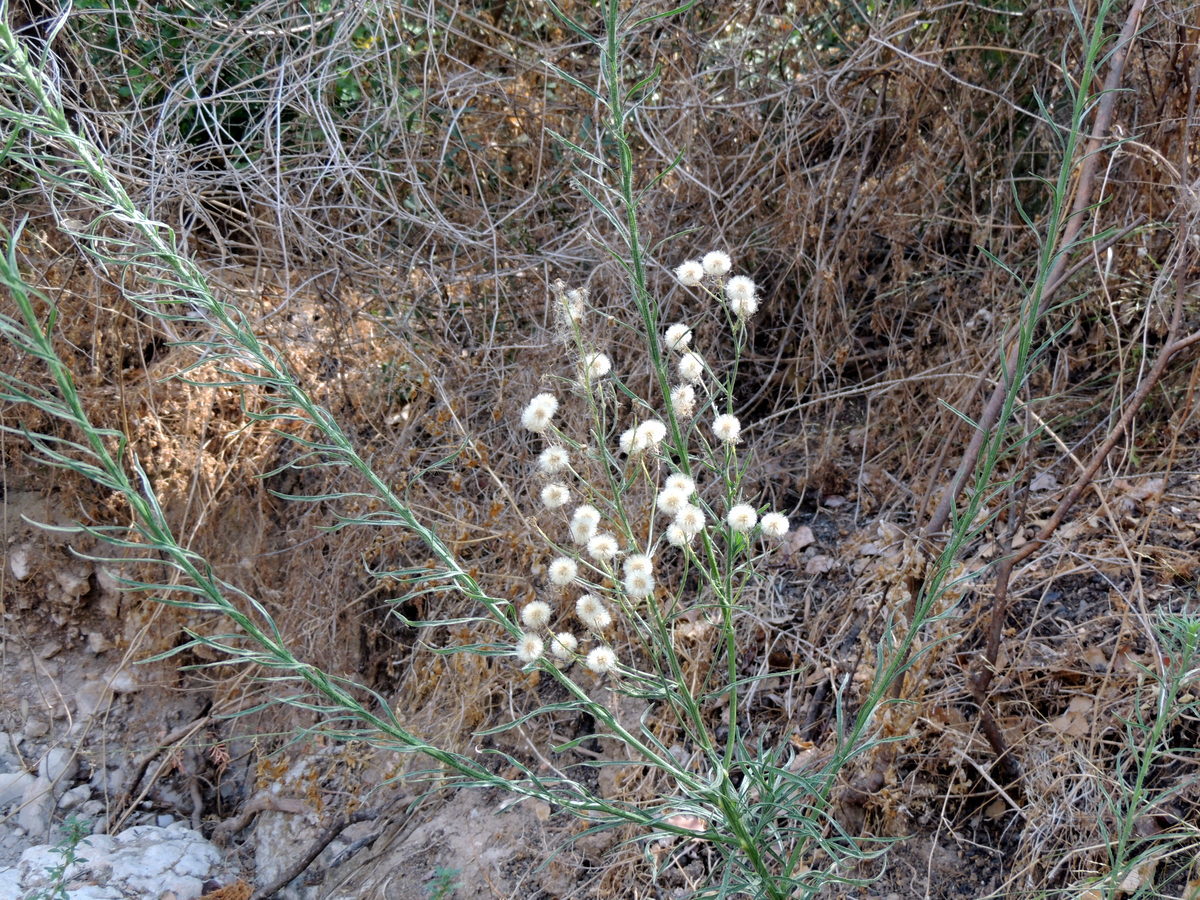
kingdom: Plantae
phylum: Tracheophyta
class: Magnoliopsida
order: Asterales
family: Asteraceae
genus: Erigeron
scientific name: Erigeron bonariensis
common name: Argentine fleabane
